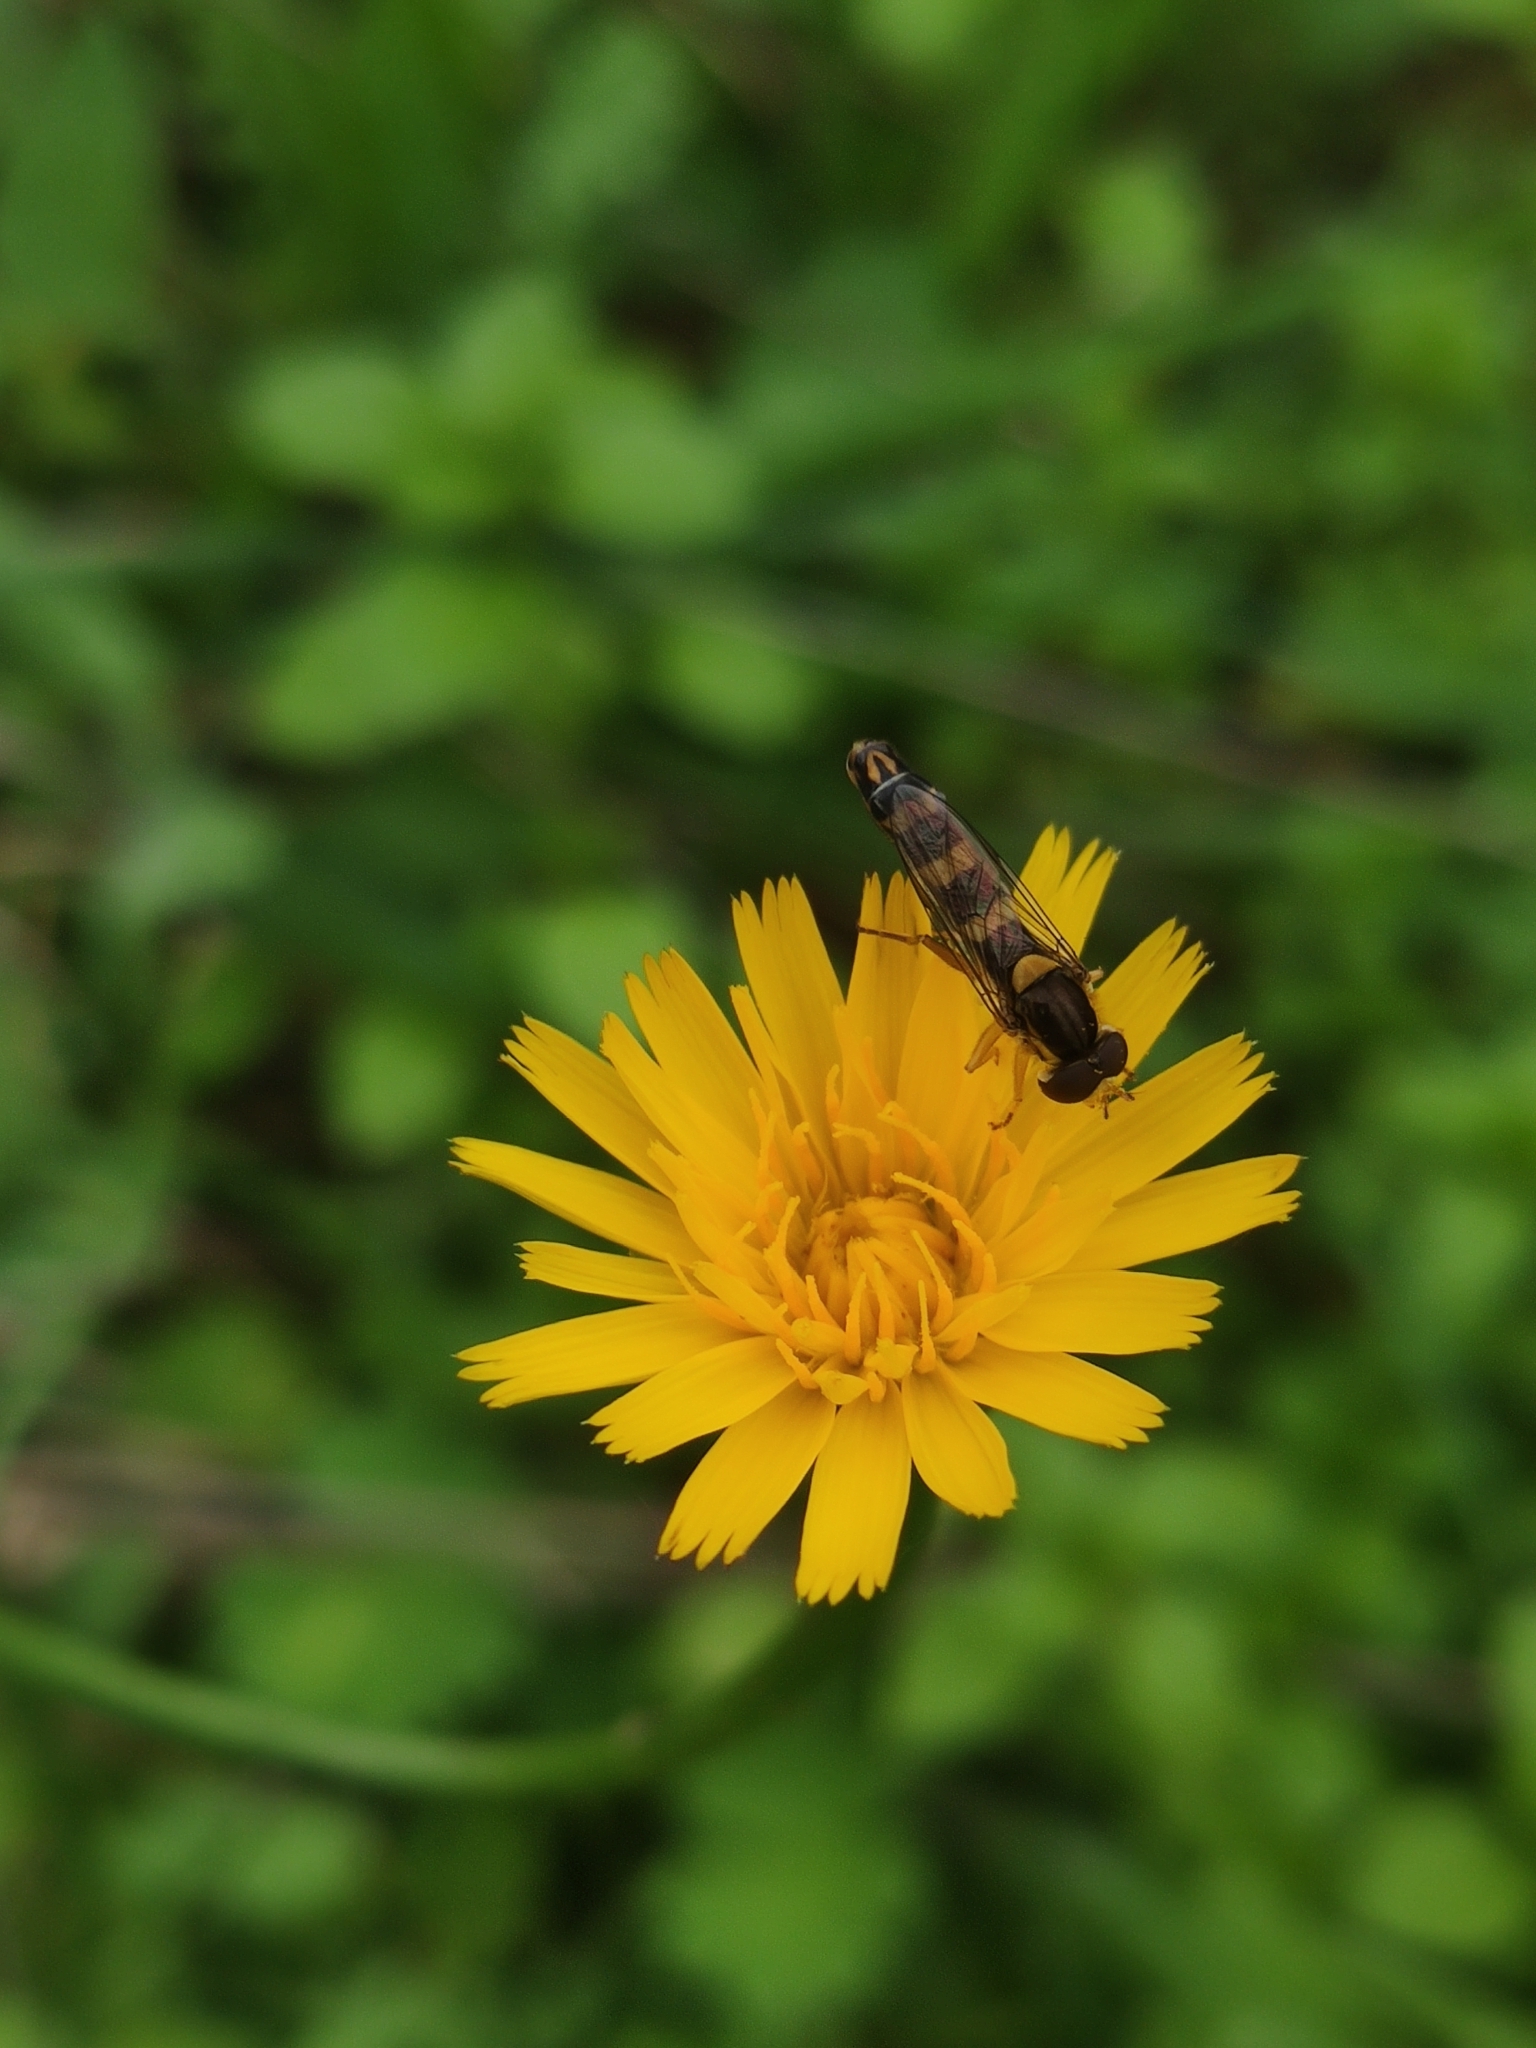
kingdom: Animalia
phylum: Arthropoda
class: Insecta
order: Diptera
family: Syrphidae
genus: Sphaerophoria
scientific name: Sphaerophoria scripta
